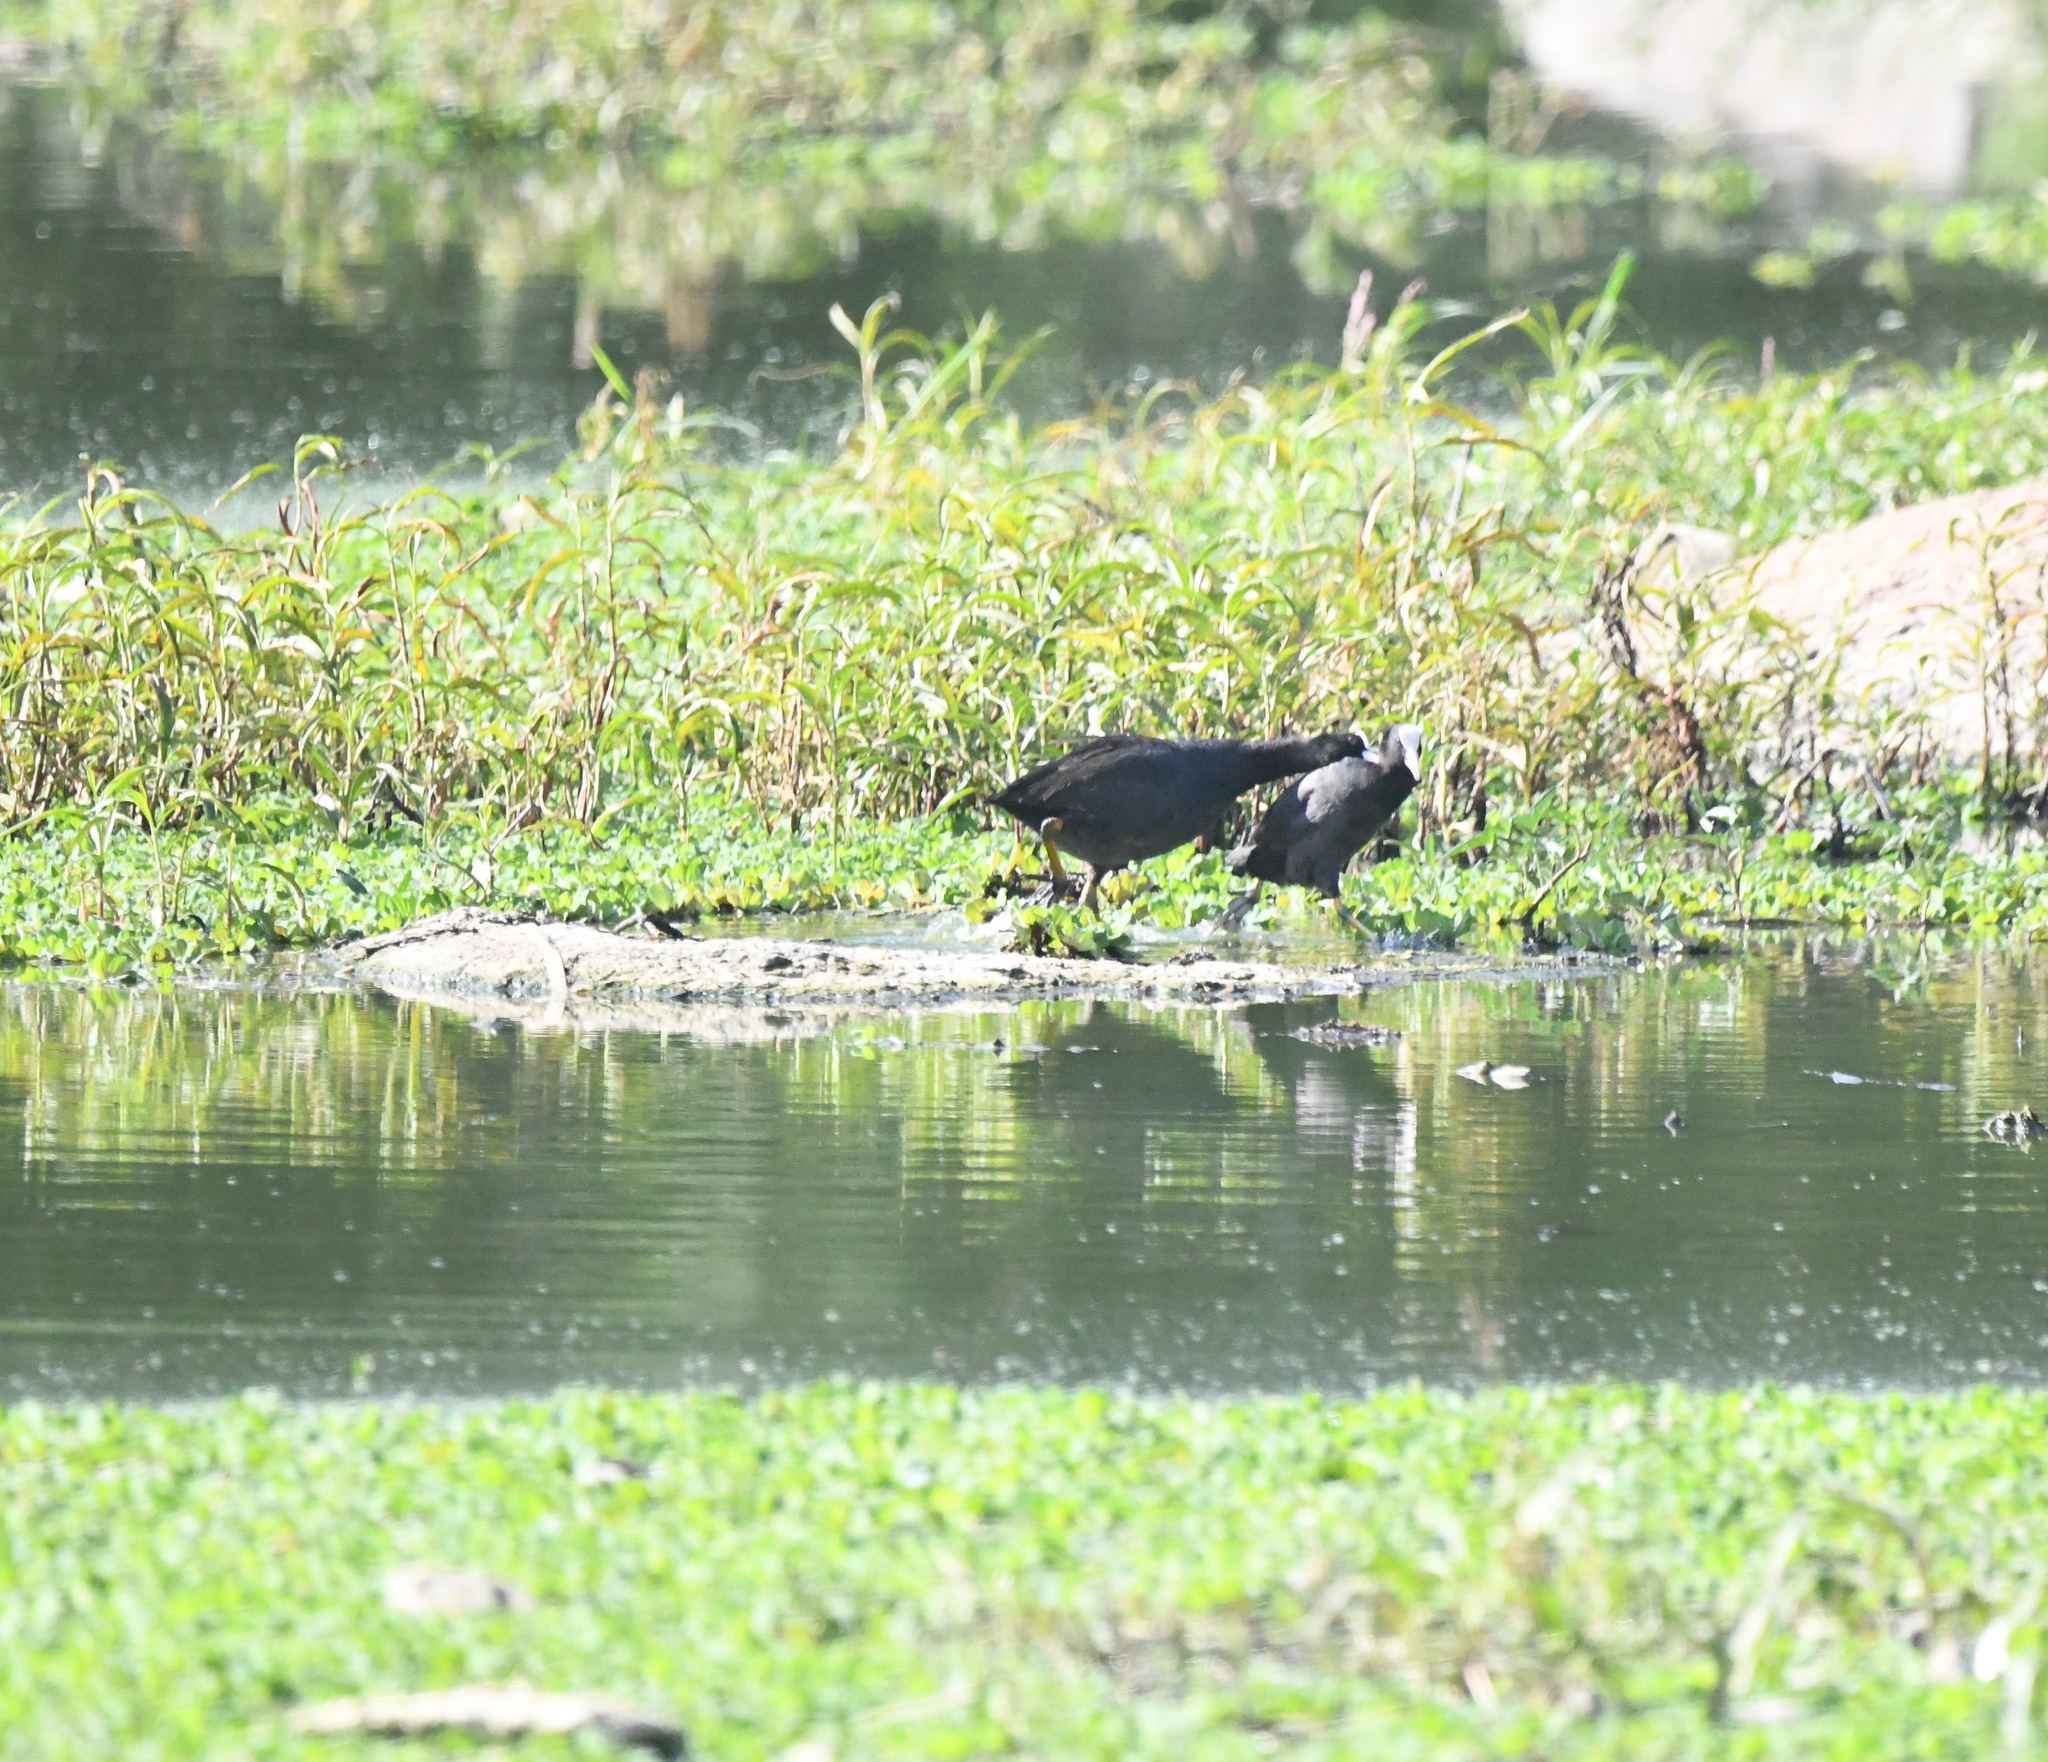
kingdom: Animalia
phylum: Chordata
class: Aves
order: Gruiformes
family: Rallidae
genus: Fulica
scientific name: Fulica atra
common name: Eurasian coot
